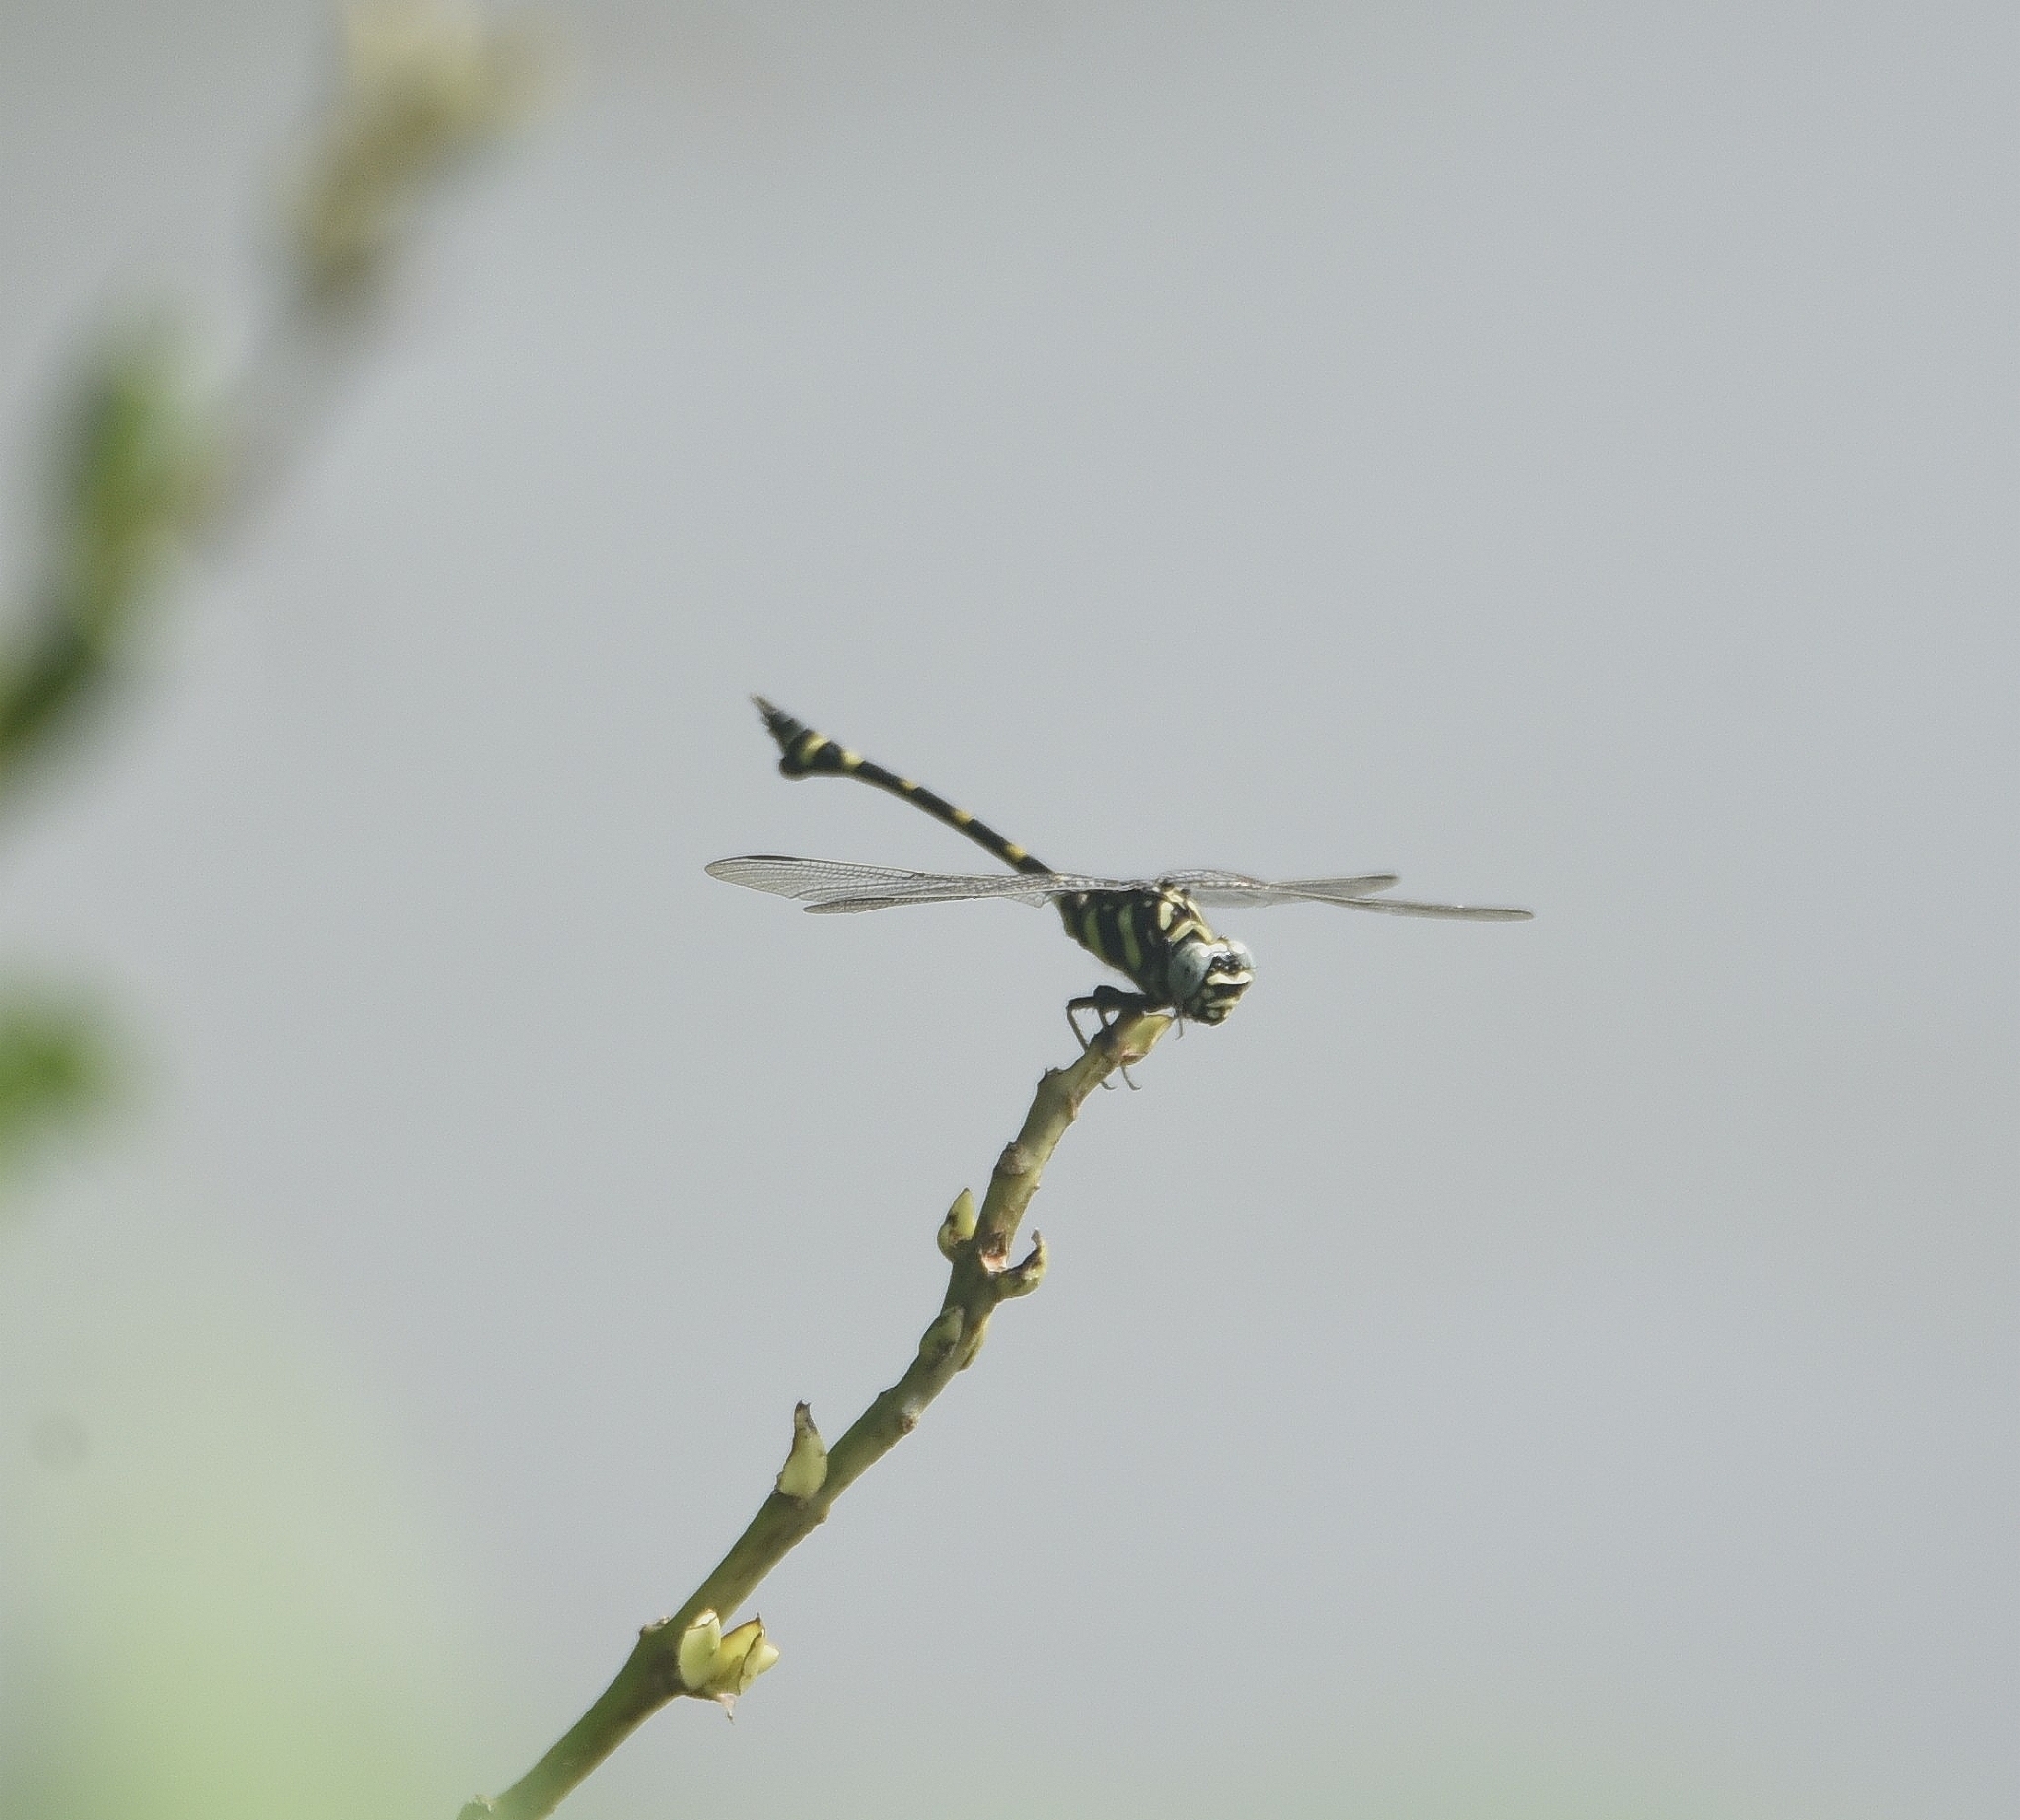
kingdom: Animalia
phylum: Arthropoda
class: Insecta
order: Odonata
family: Gomphidae
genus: Ictinogomphus
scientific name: Ictinogomphus rapax
